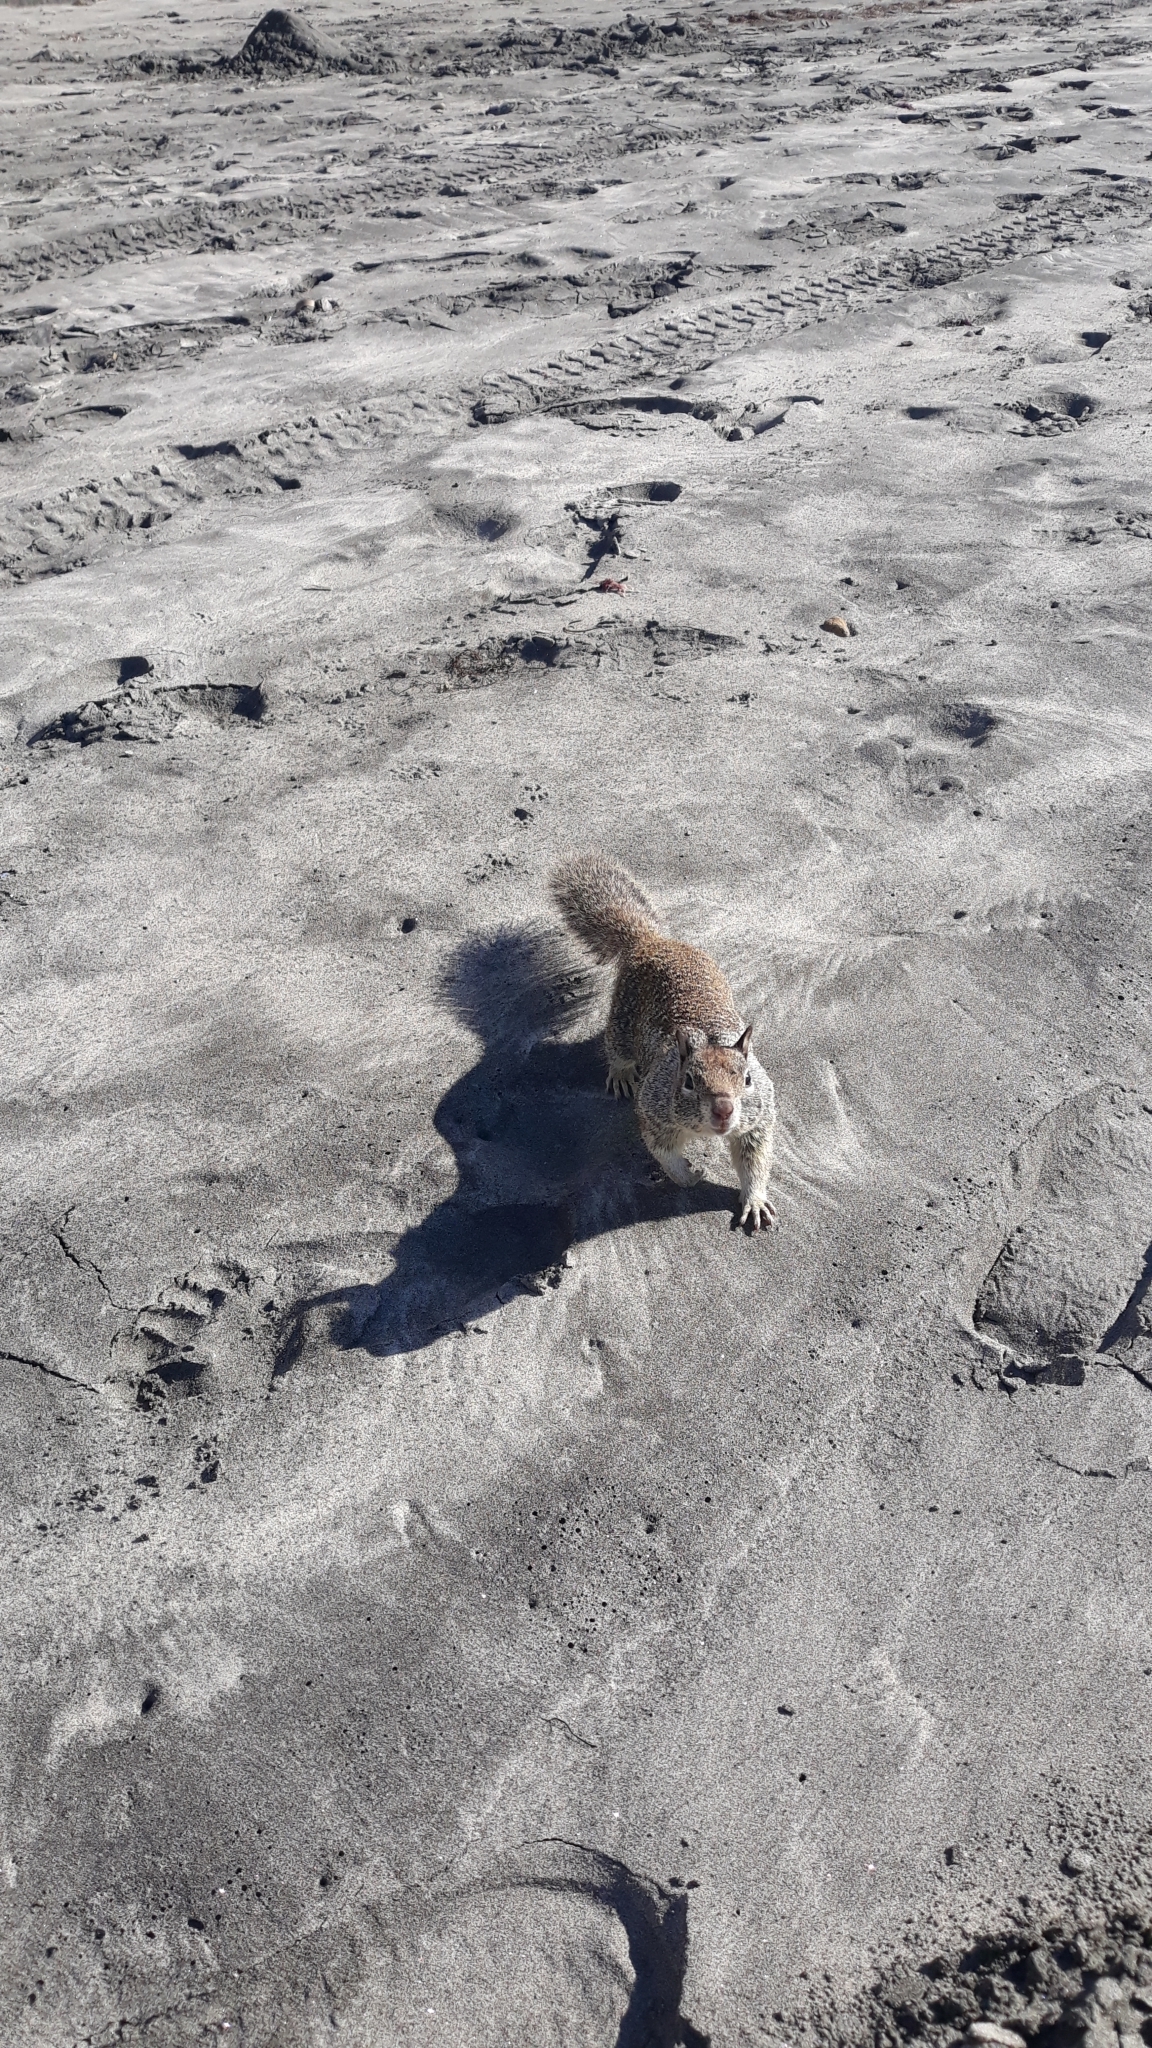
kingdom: Animalia
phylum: Chordata
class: Mammalia
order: Rodentia
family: Sciuridae
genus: Otospermophilus
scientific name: Otospermophilus beecheyi
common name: California ground squirrel
